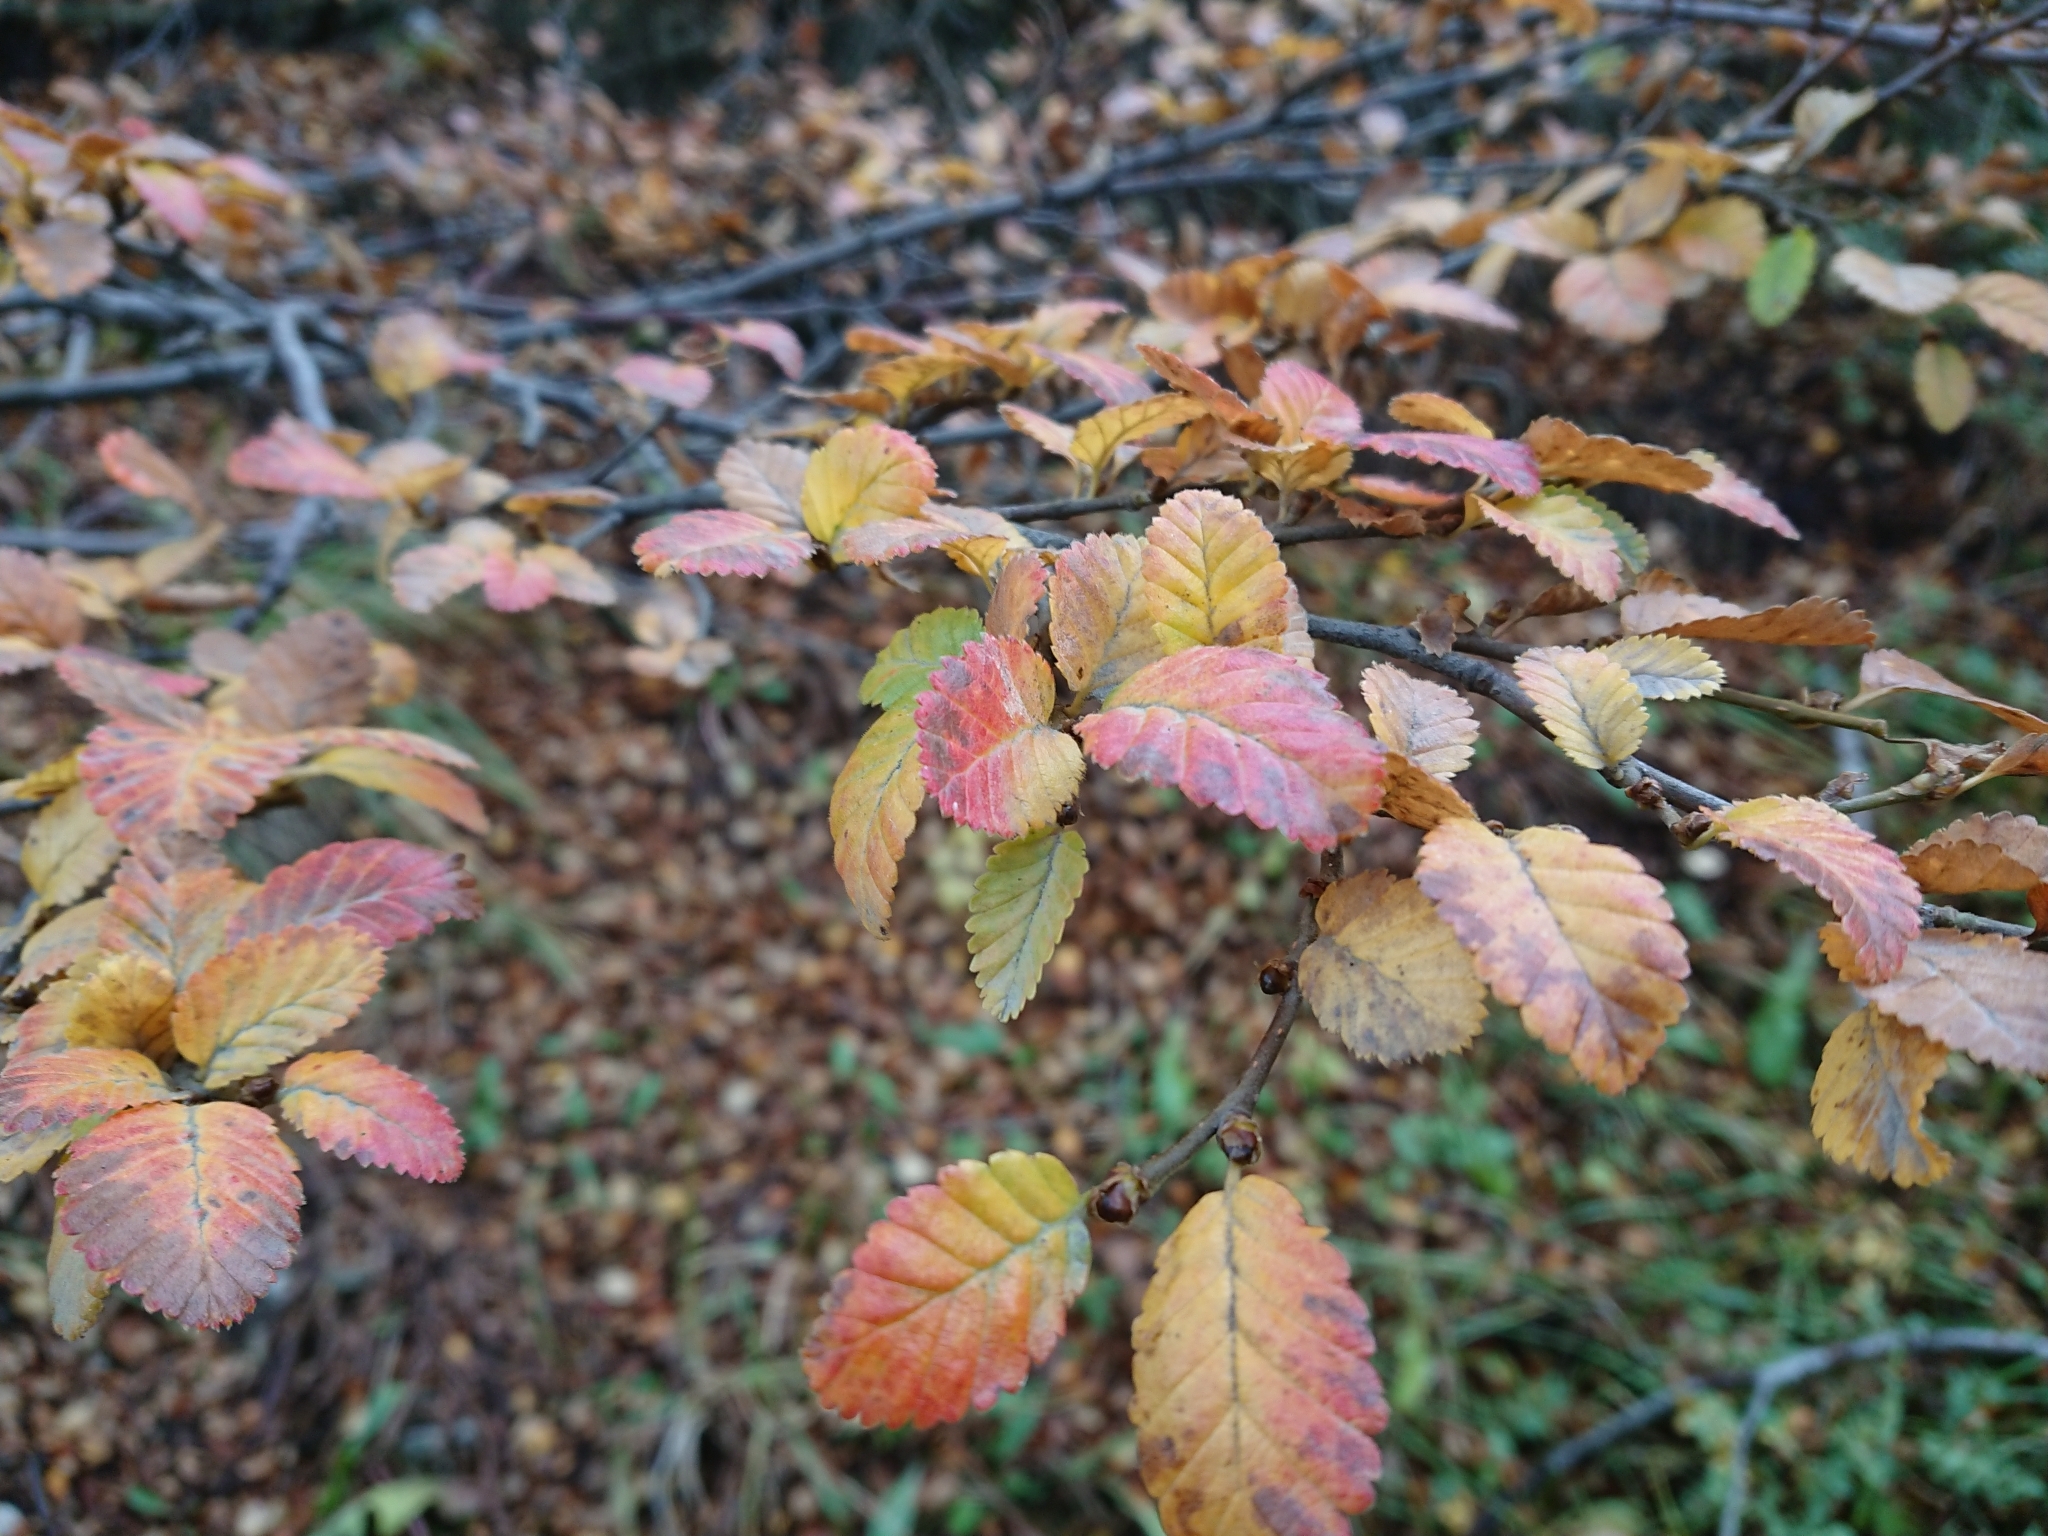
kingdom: Plantae
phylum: Tracheophyta
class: Magnoliopsida
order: Fagales
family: Nothofagaceae
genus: Nothofagus
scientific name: Nothofagus pumilio
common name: Lenga beech
